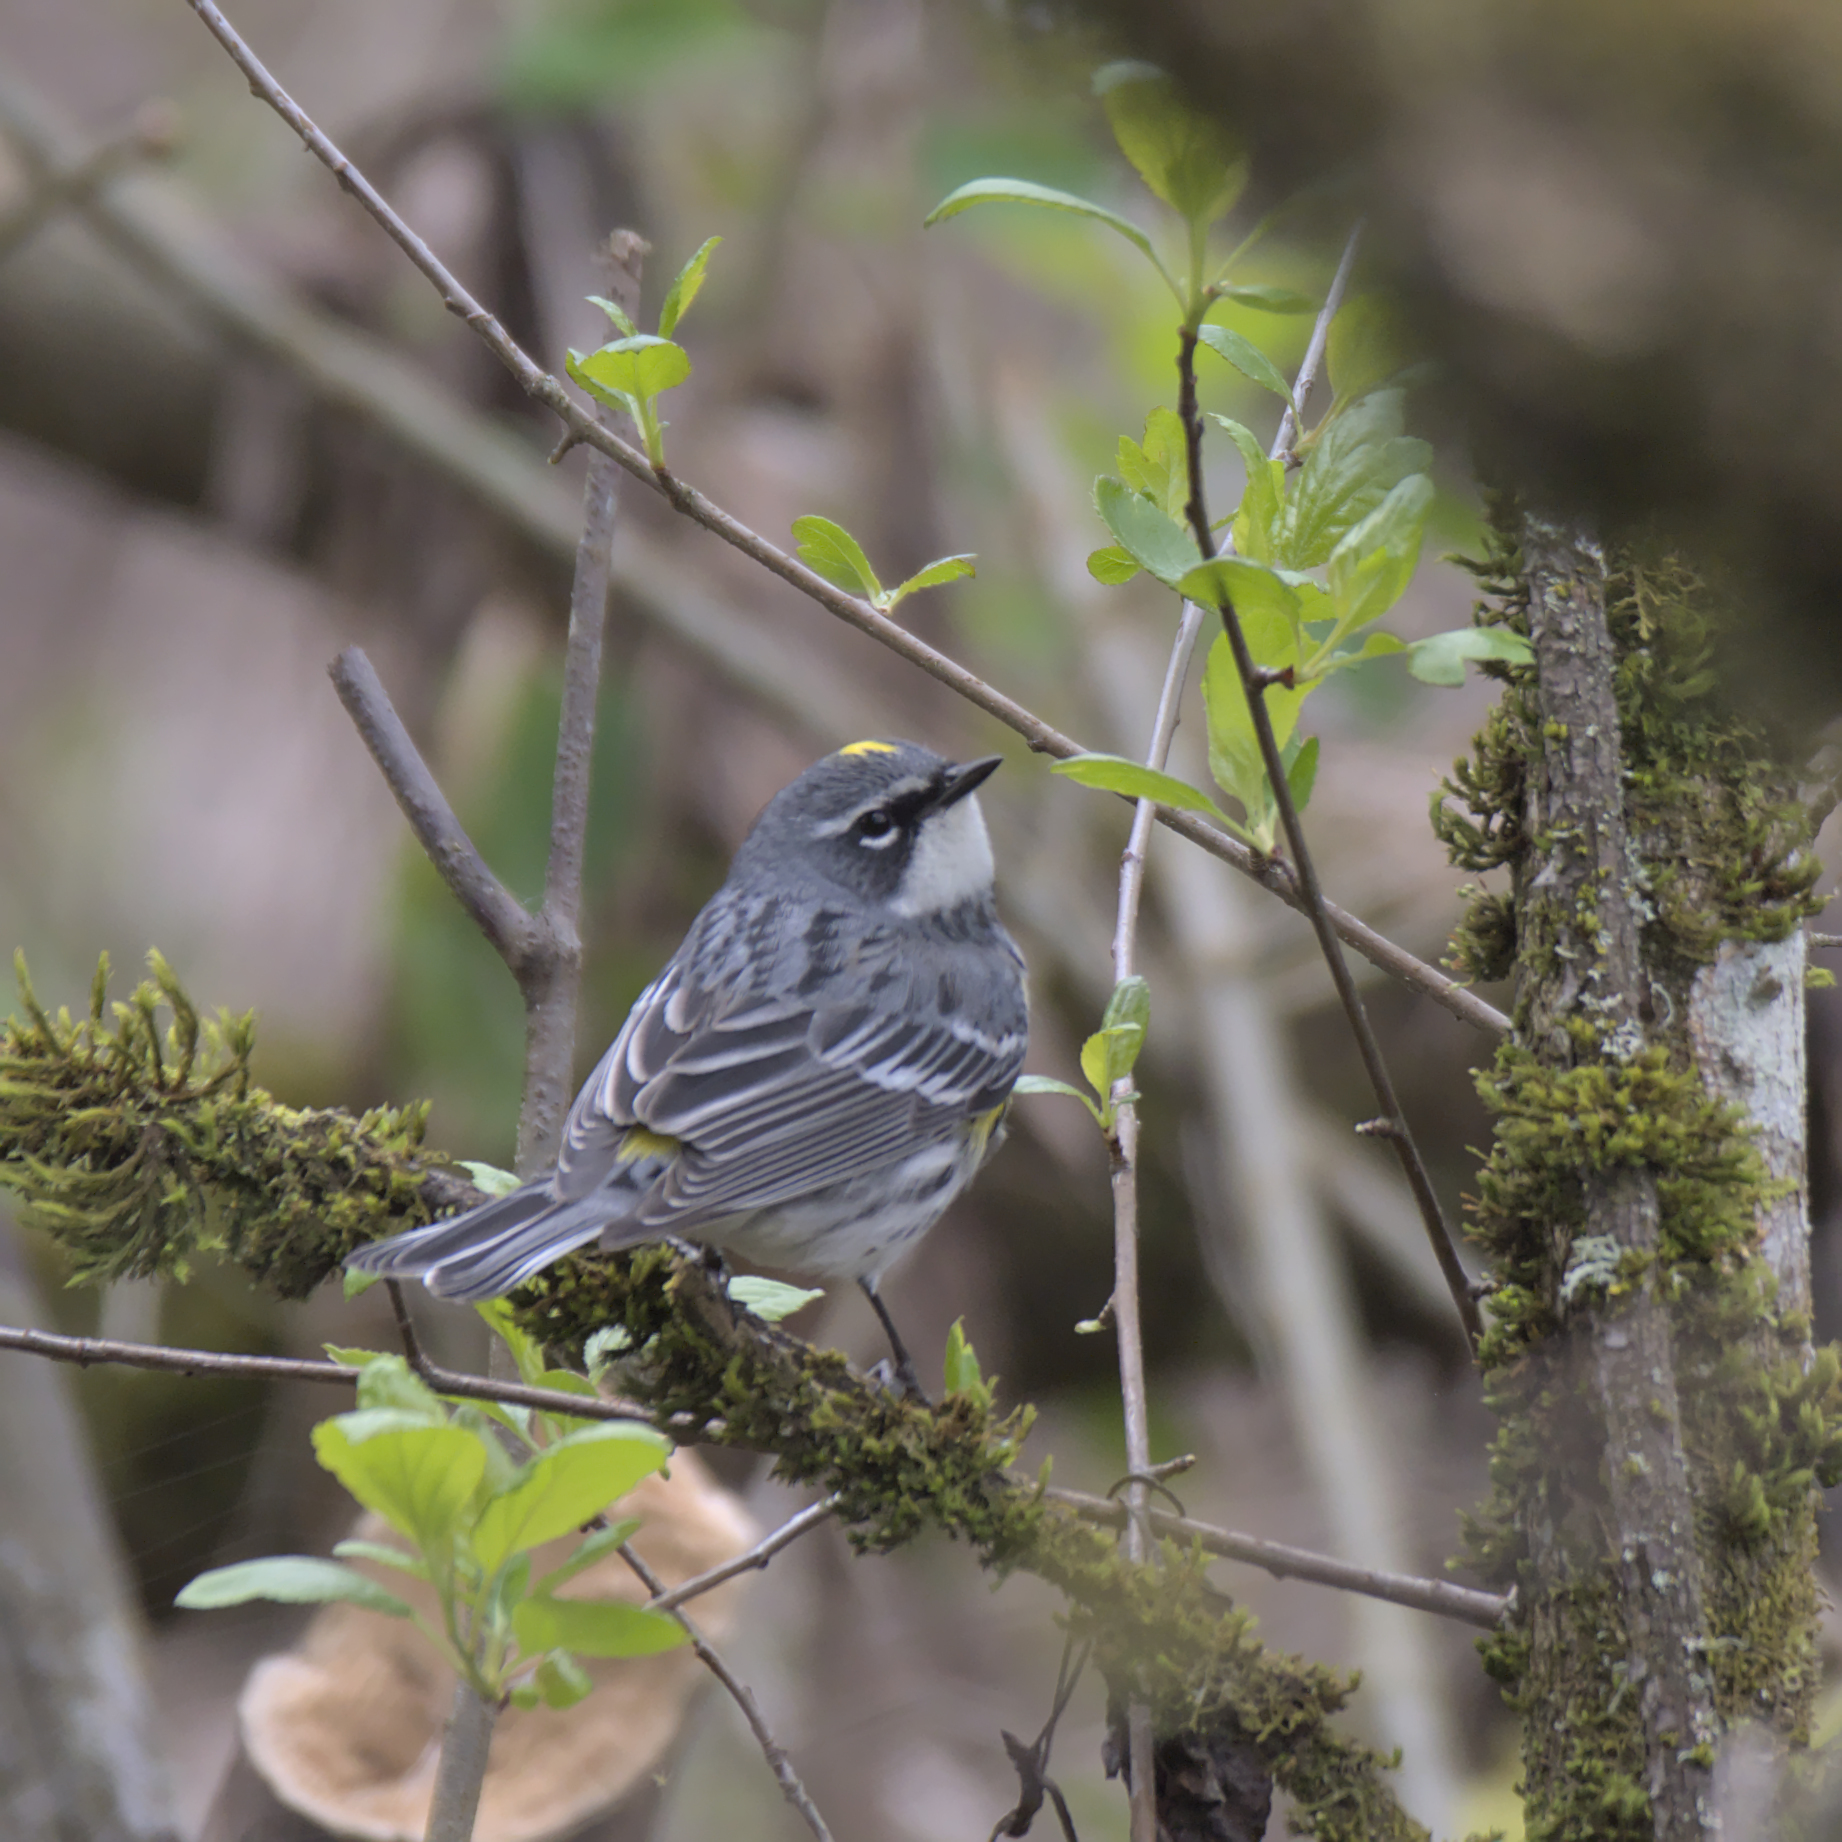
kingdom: Animalia
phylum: Chordata
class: Aves
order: Passeriformes
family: Parulidae
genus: Setophaga
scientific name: Setophaga coronata
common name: Myrtle warbler
